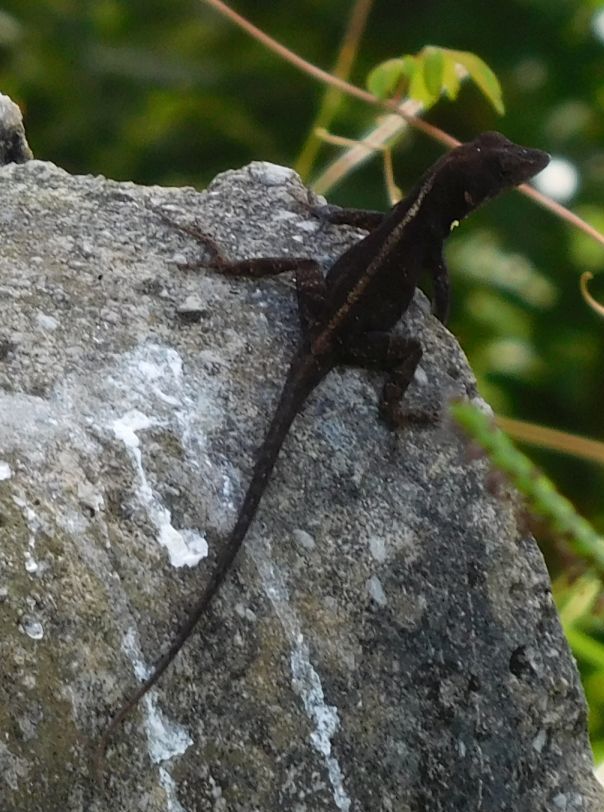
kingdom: Animalia
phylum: Chordata
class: Squamata
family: Dactyloidae
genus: Anolis
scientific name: Anolis sagrei
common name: Brown anole
